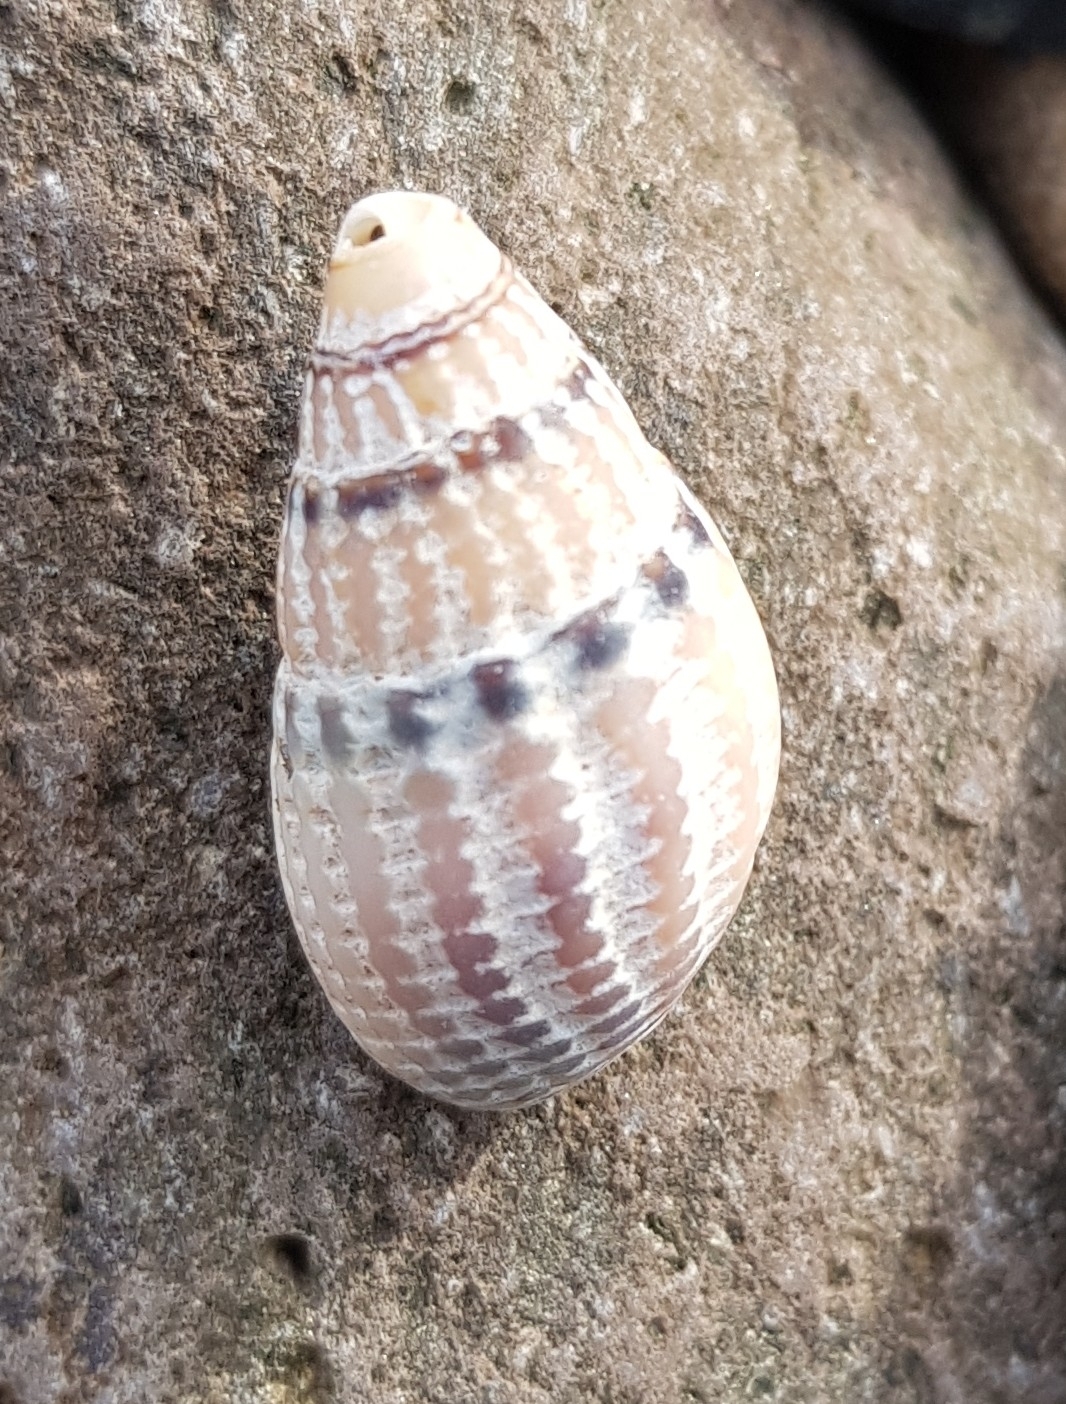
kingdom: Animalia
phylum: Mollusca
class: Gastropoda
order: Neogastropoda
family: Nassariidae
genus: Tritia
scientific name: Tritia reticulata
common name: Netted dog whelk
